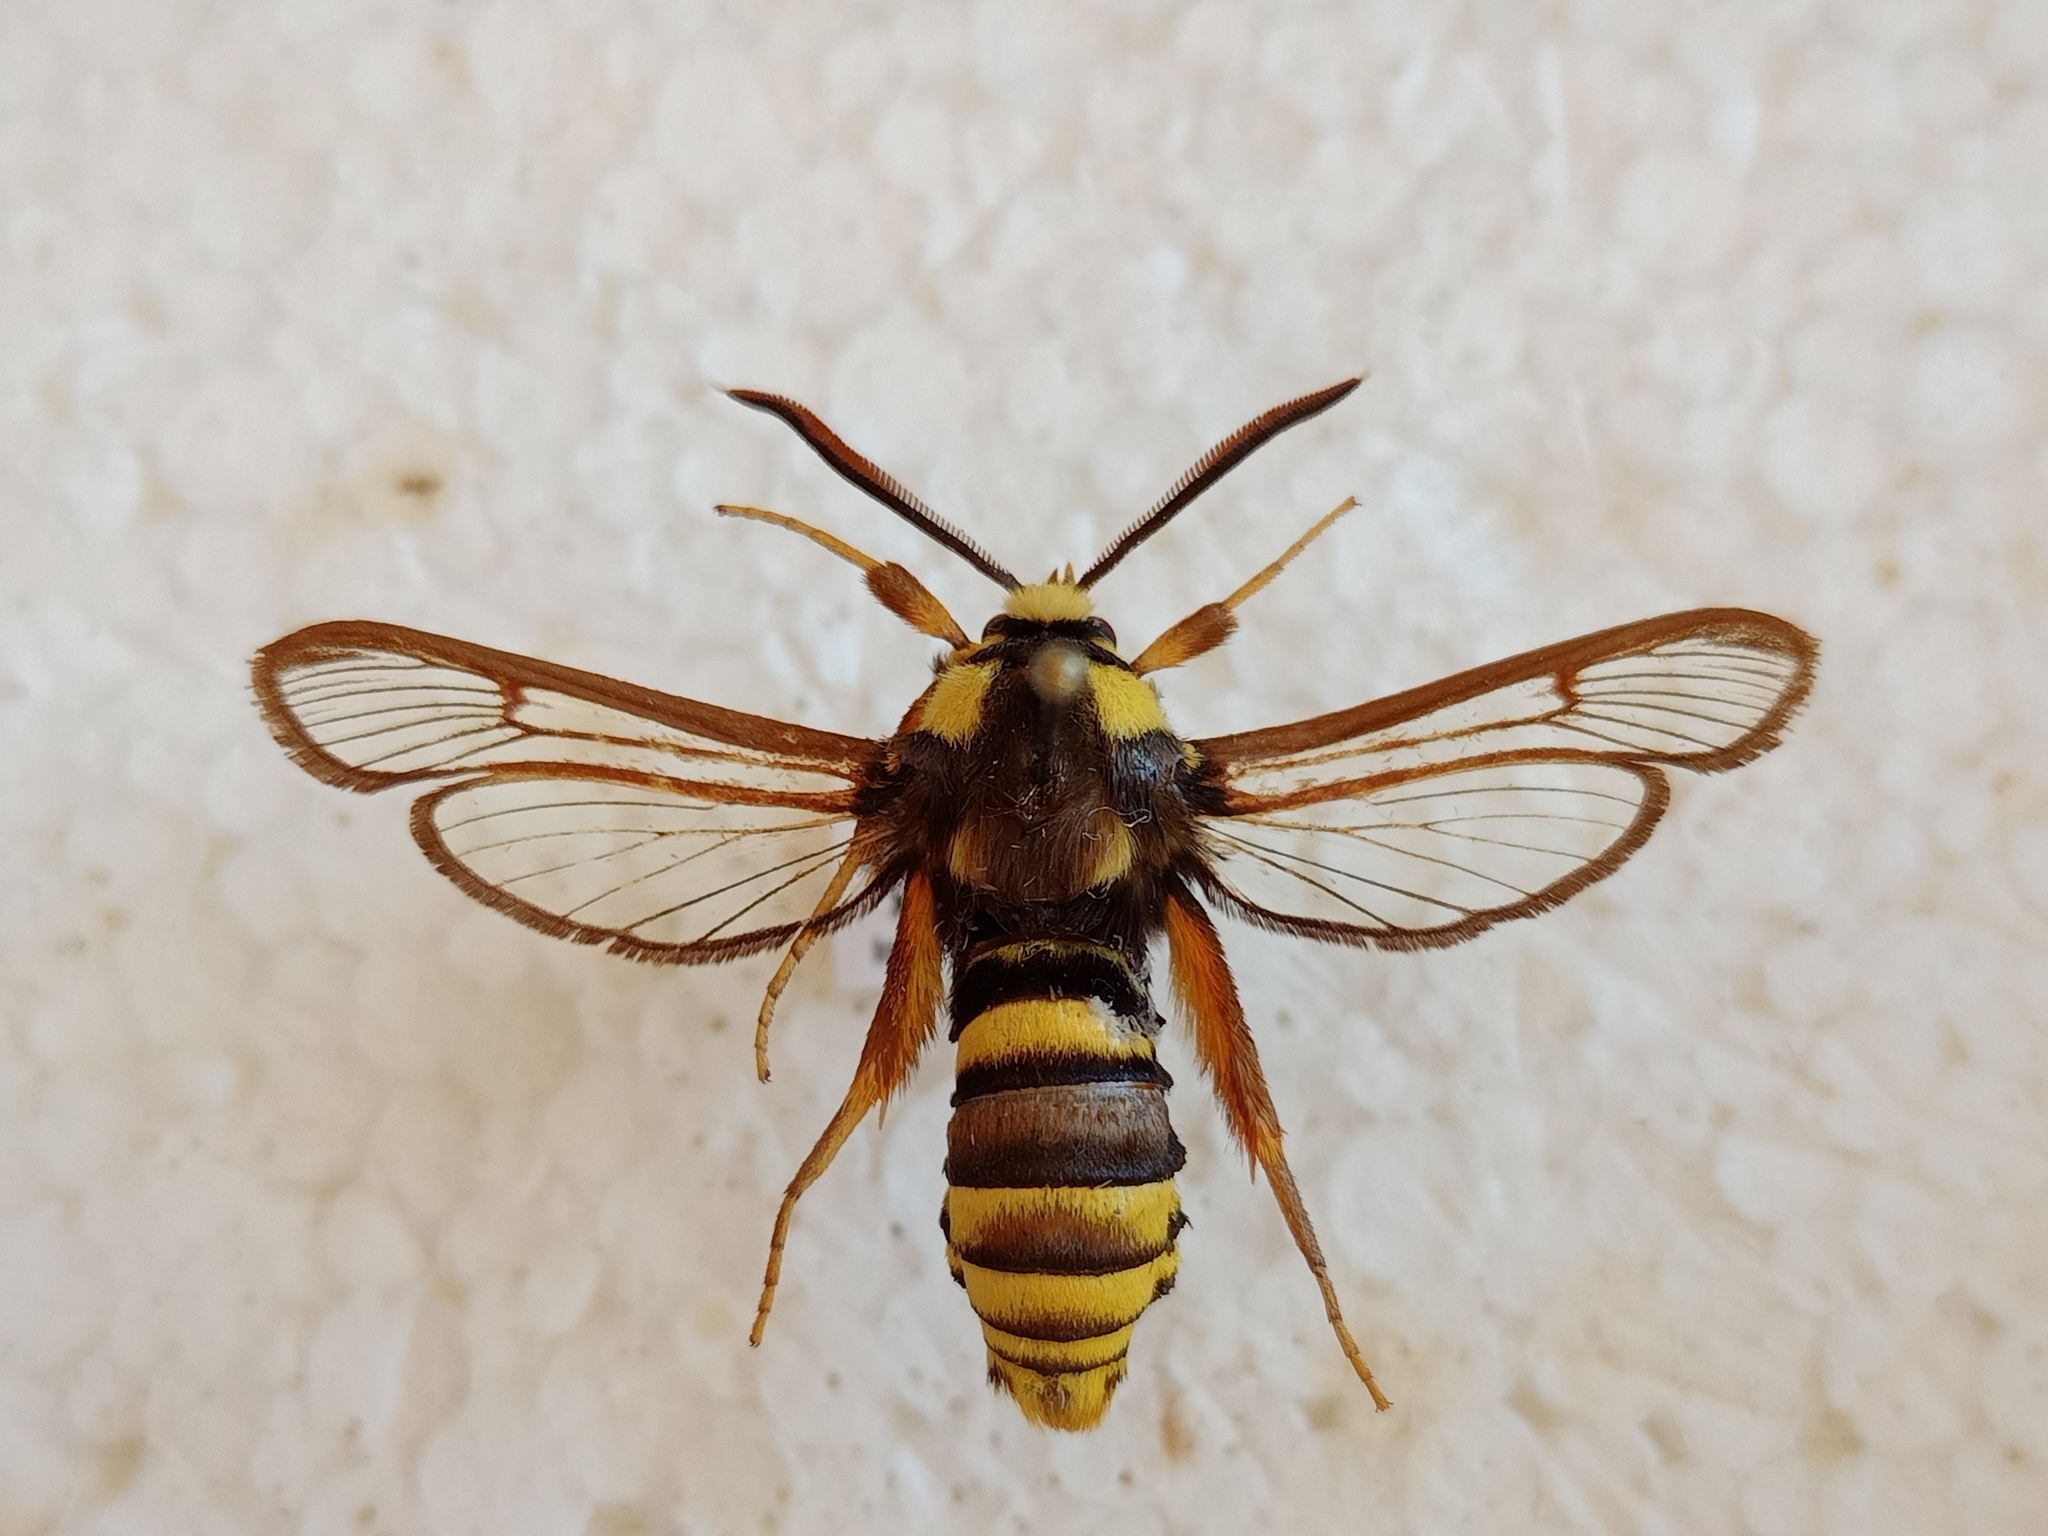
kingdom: Animalia
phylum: Arthropoda
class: Insecta
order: Lepidoptera
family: Sesiidae
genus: Sesia
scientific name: Sesia apiformis
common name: Hornet moth
